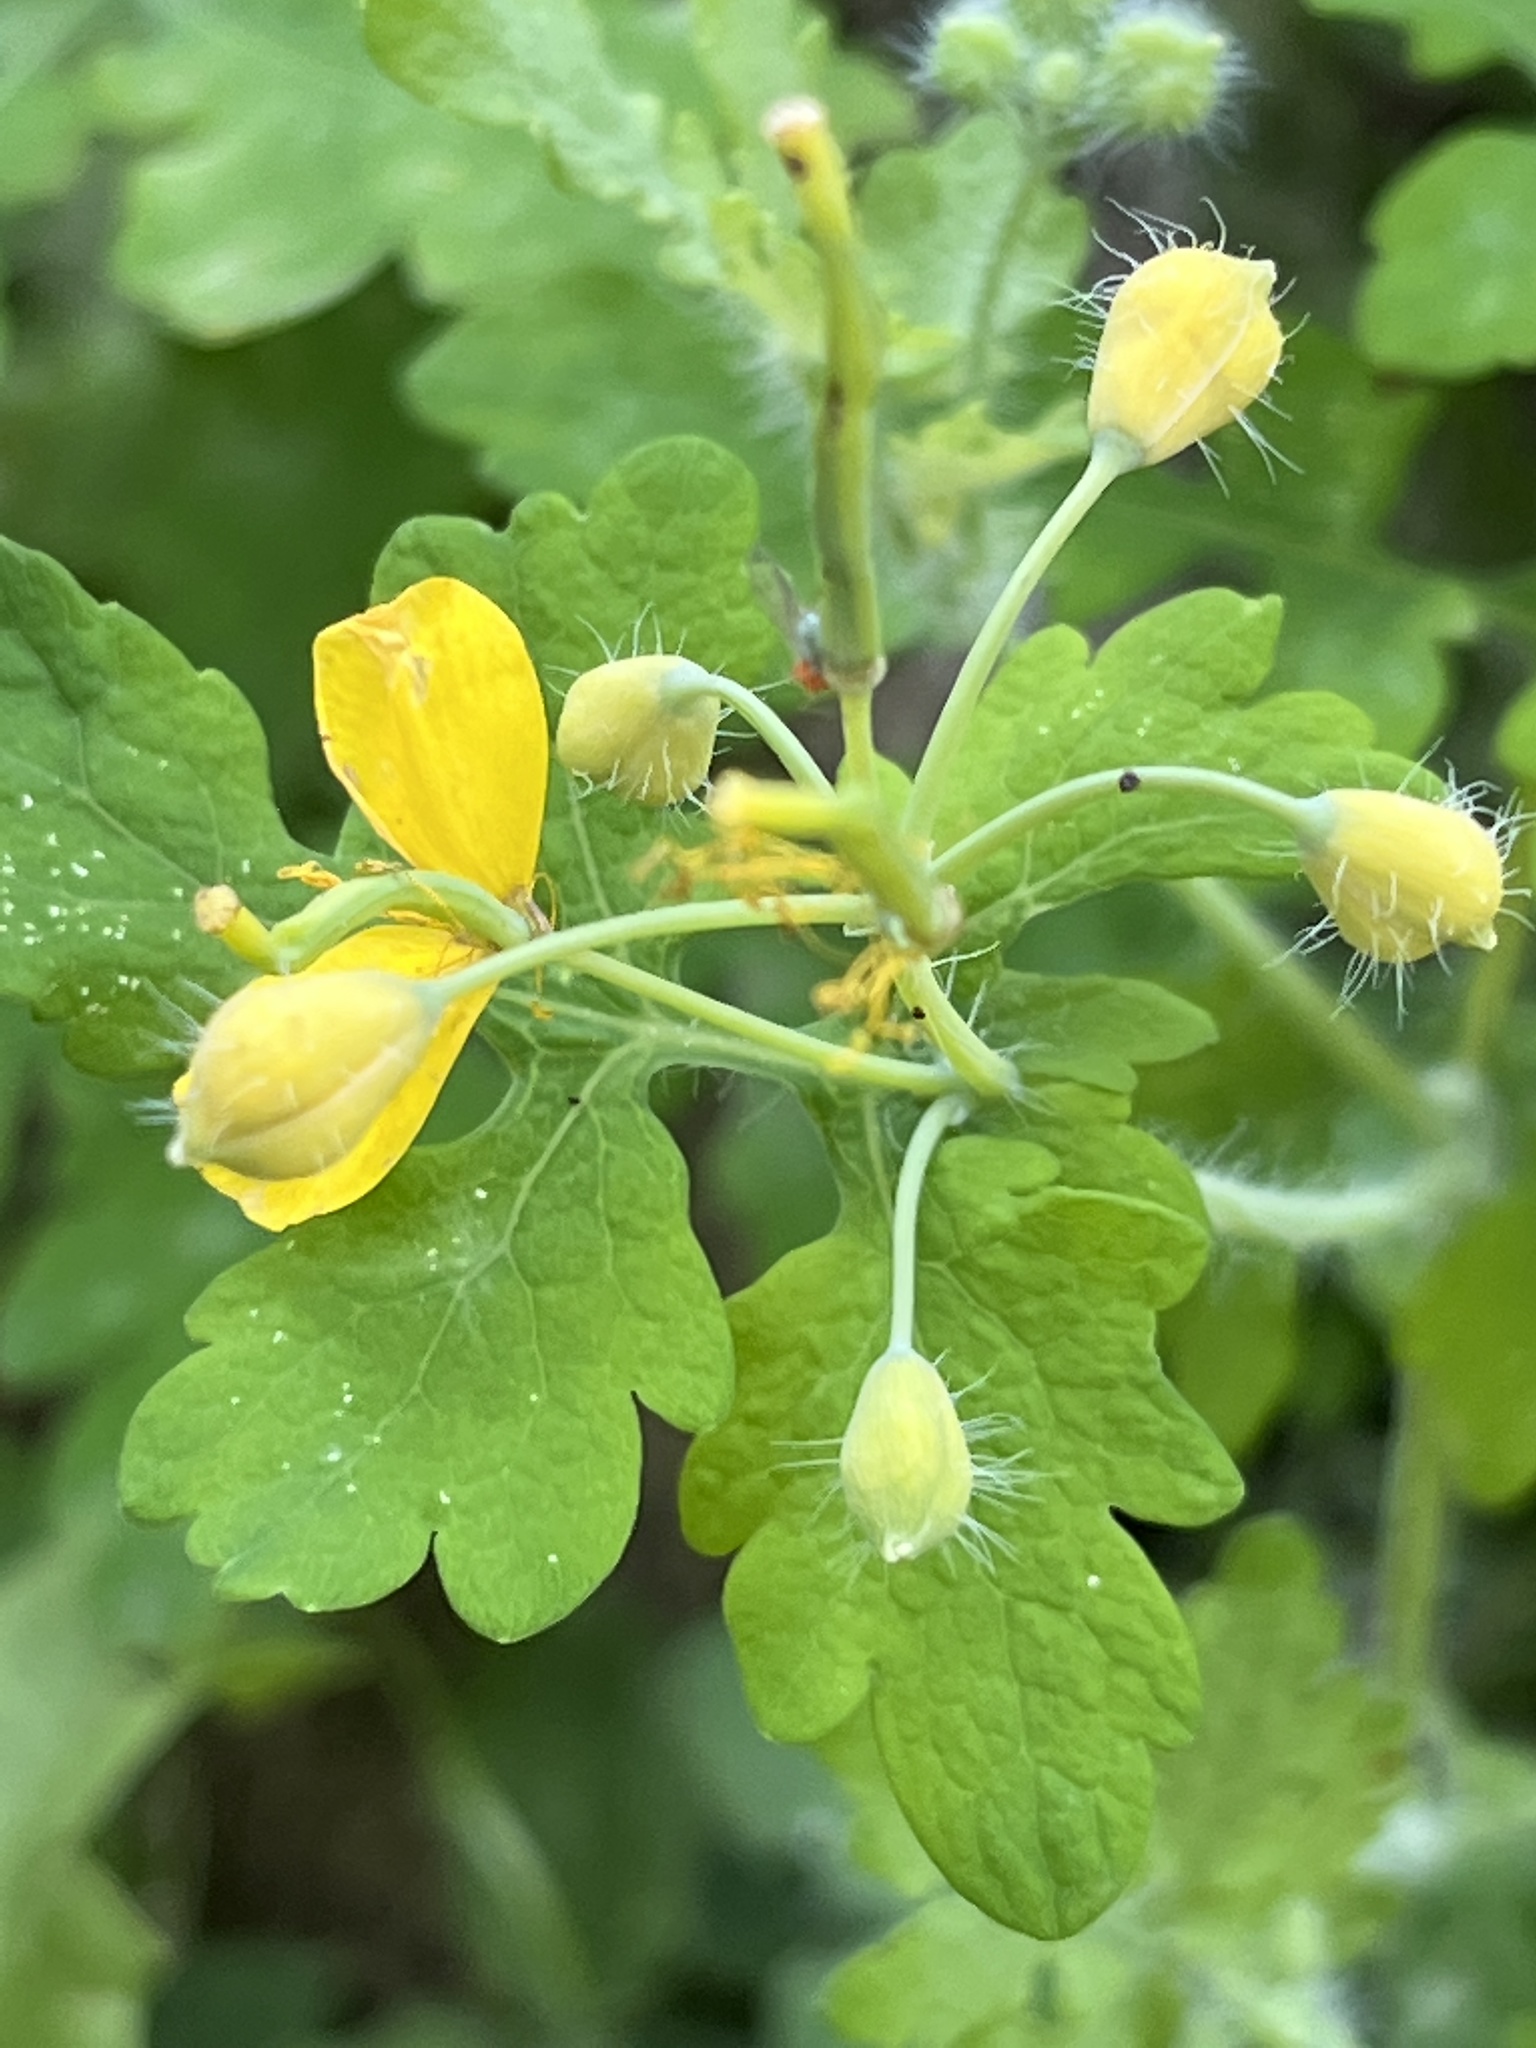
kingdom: Plantae
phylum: Tracheophyta
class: Magnoliopsida
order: Ranunculales
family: Papaveraceae
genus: Chelidonium
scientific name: Chelidonium majus
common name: Greater celandine
